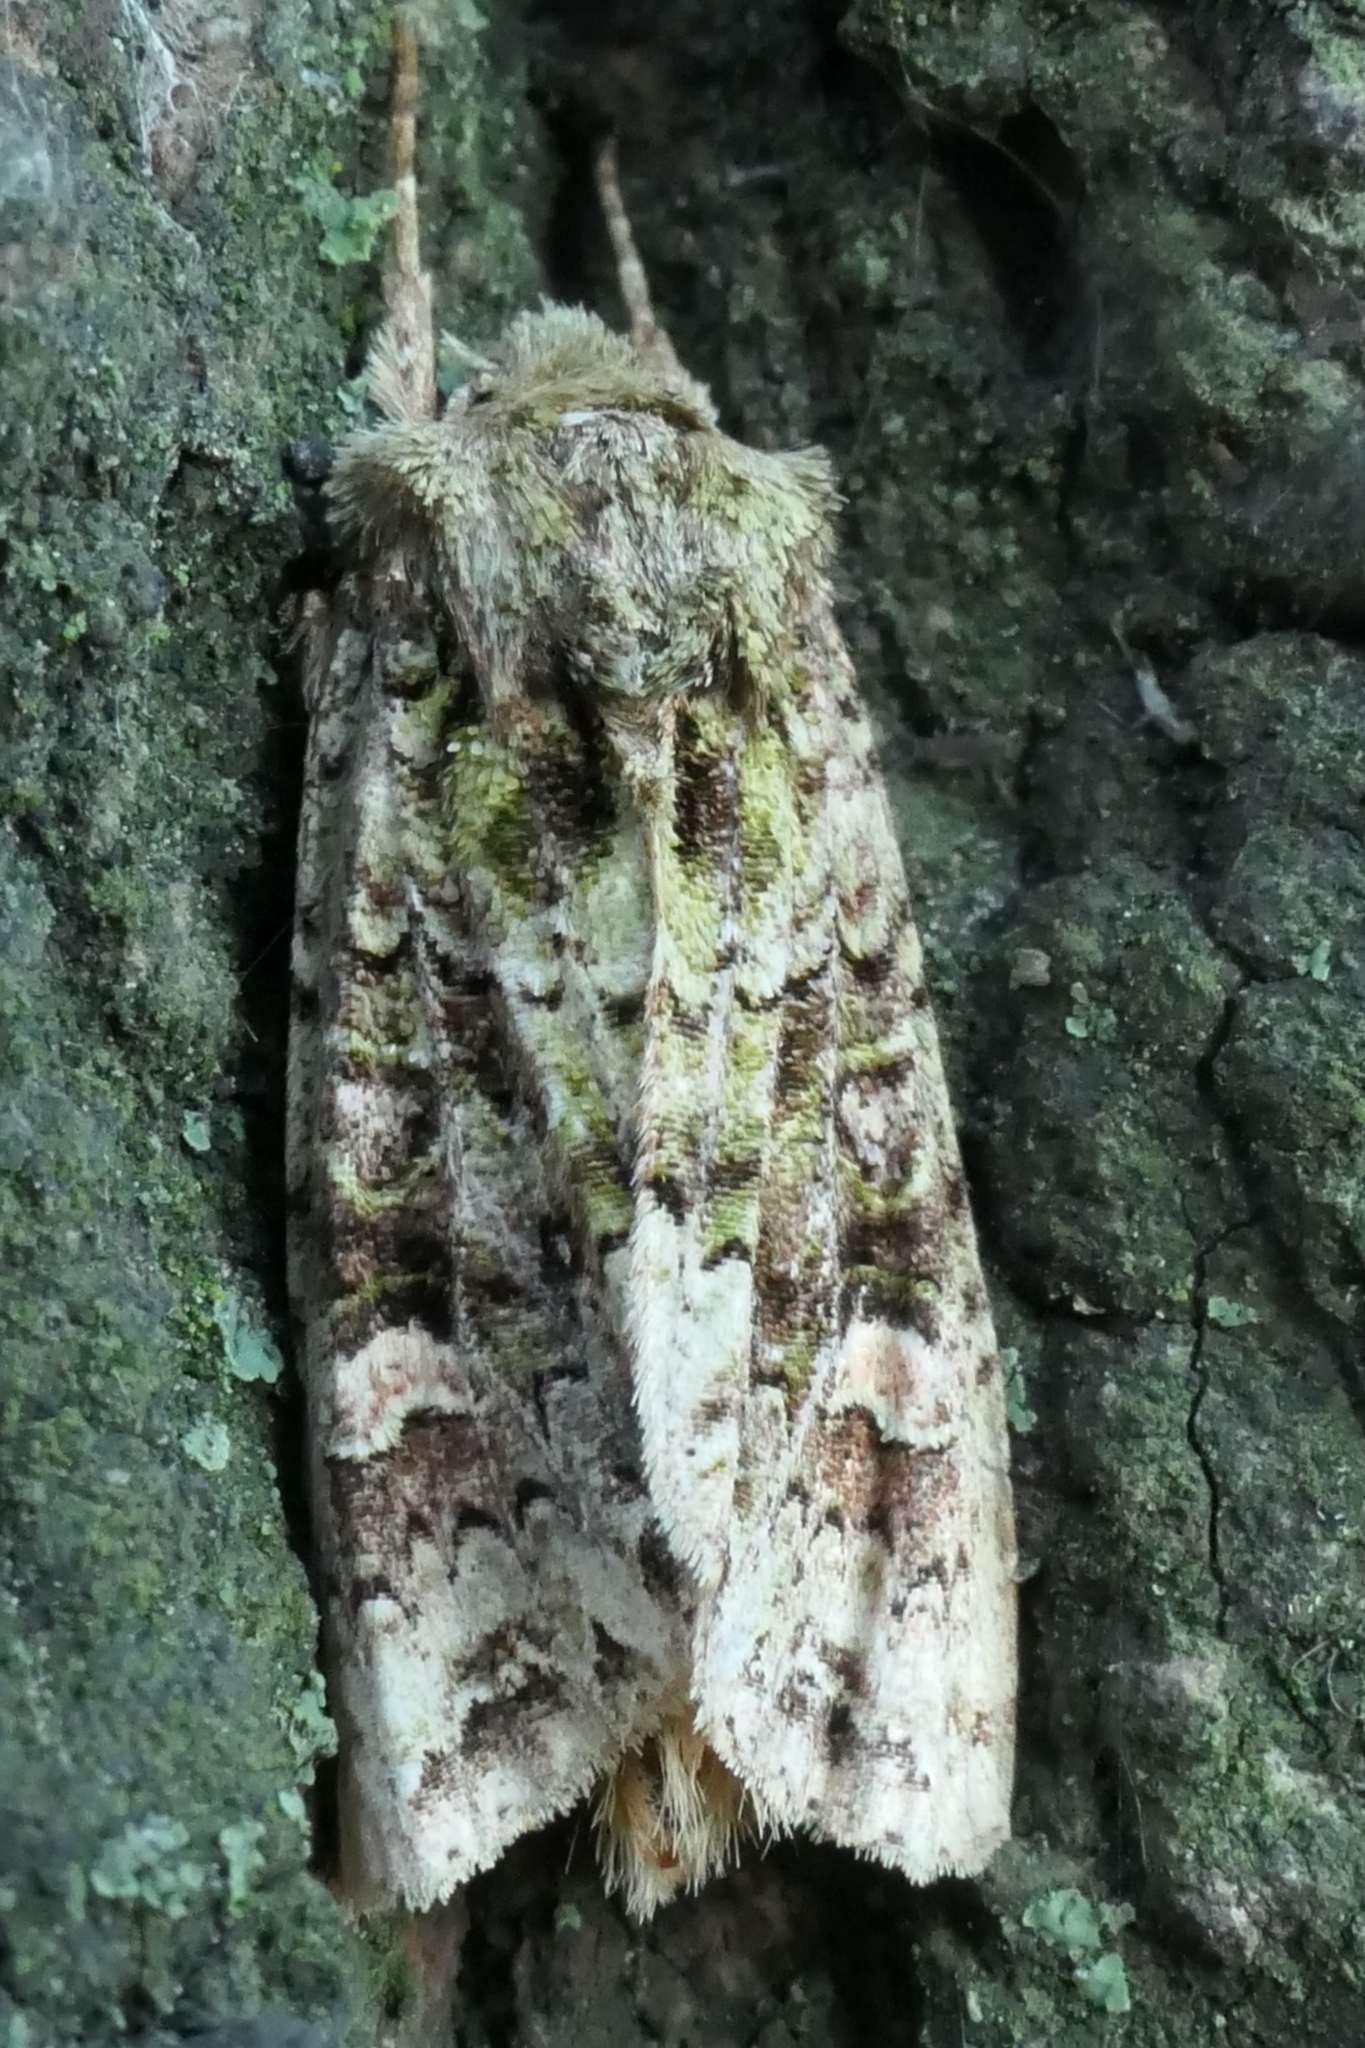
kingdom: Animalia
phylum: Arthropoda
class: Insecta
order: Lepidoptera
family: Noctuidae
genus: Ichneutica
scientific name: Ichneutica
